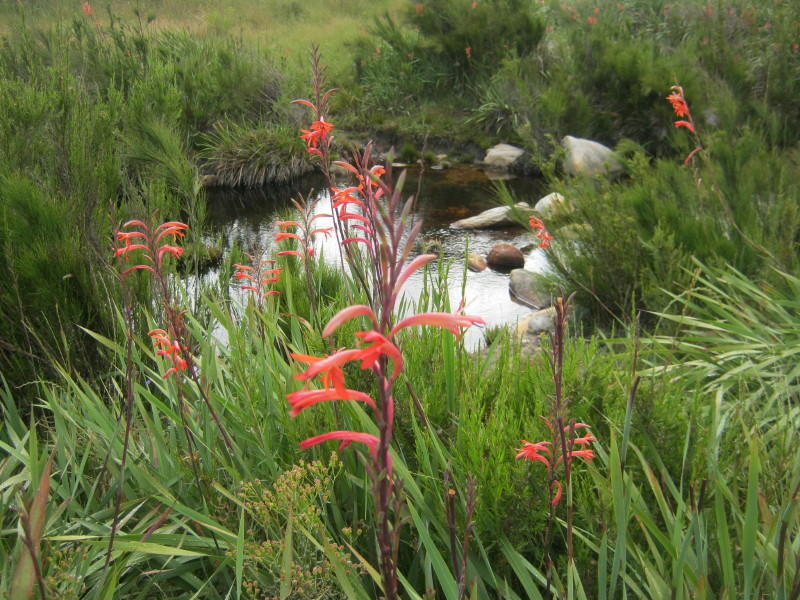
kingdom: Plantae
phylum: Tracheophyta
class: Liliopsida
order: Asparagales
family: Iridaceae
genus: Watsonia
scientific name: Watsonia angusta
